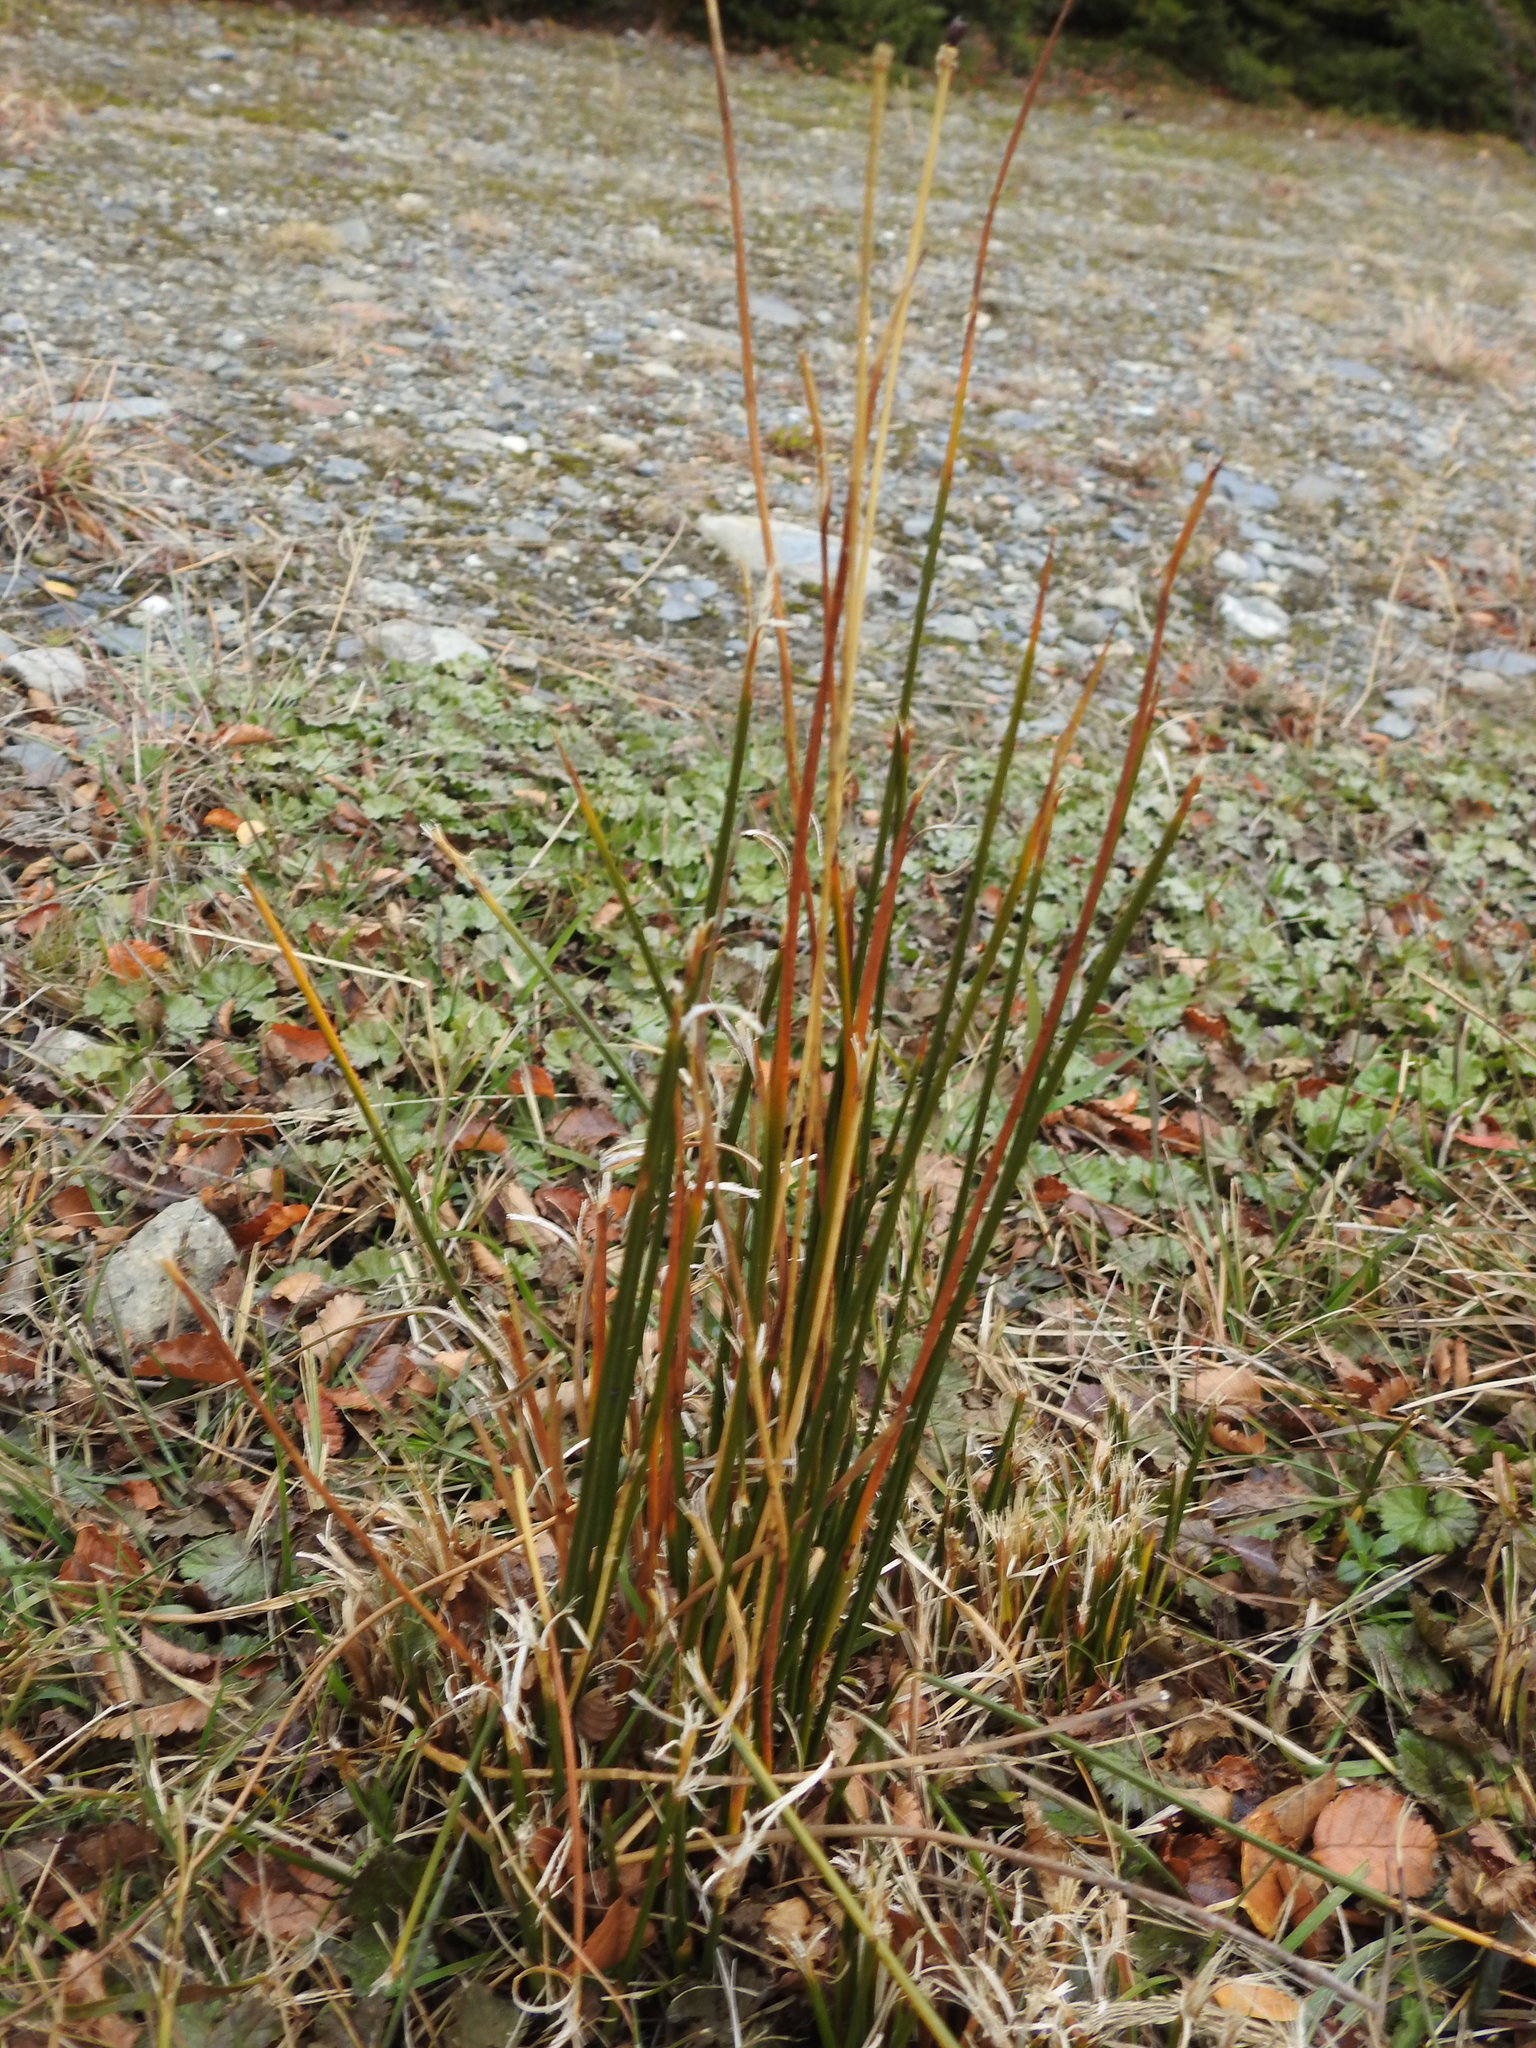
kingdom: Plantae
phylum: Tracheophyta
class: Liliopsida
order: Poales
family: Juncaceae
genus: Marsippospermum
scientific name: Marsippospermum grandiflorum
